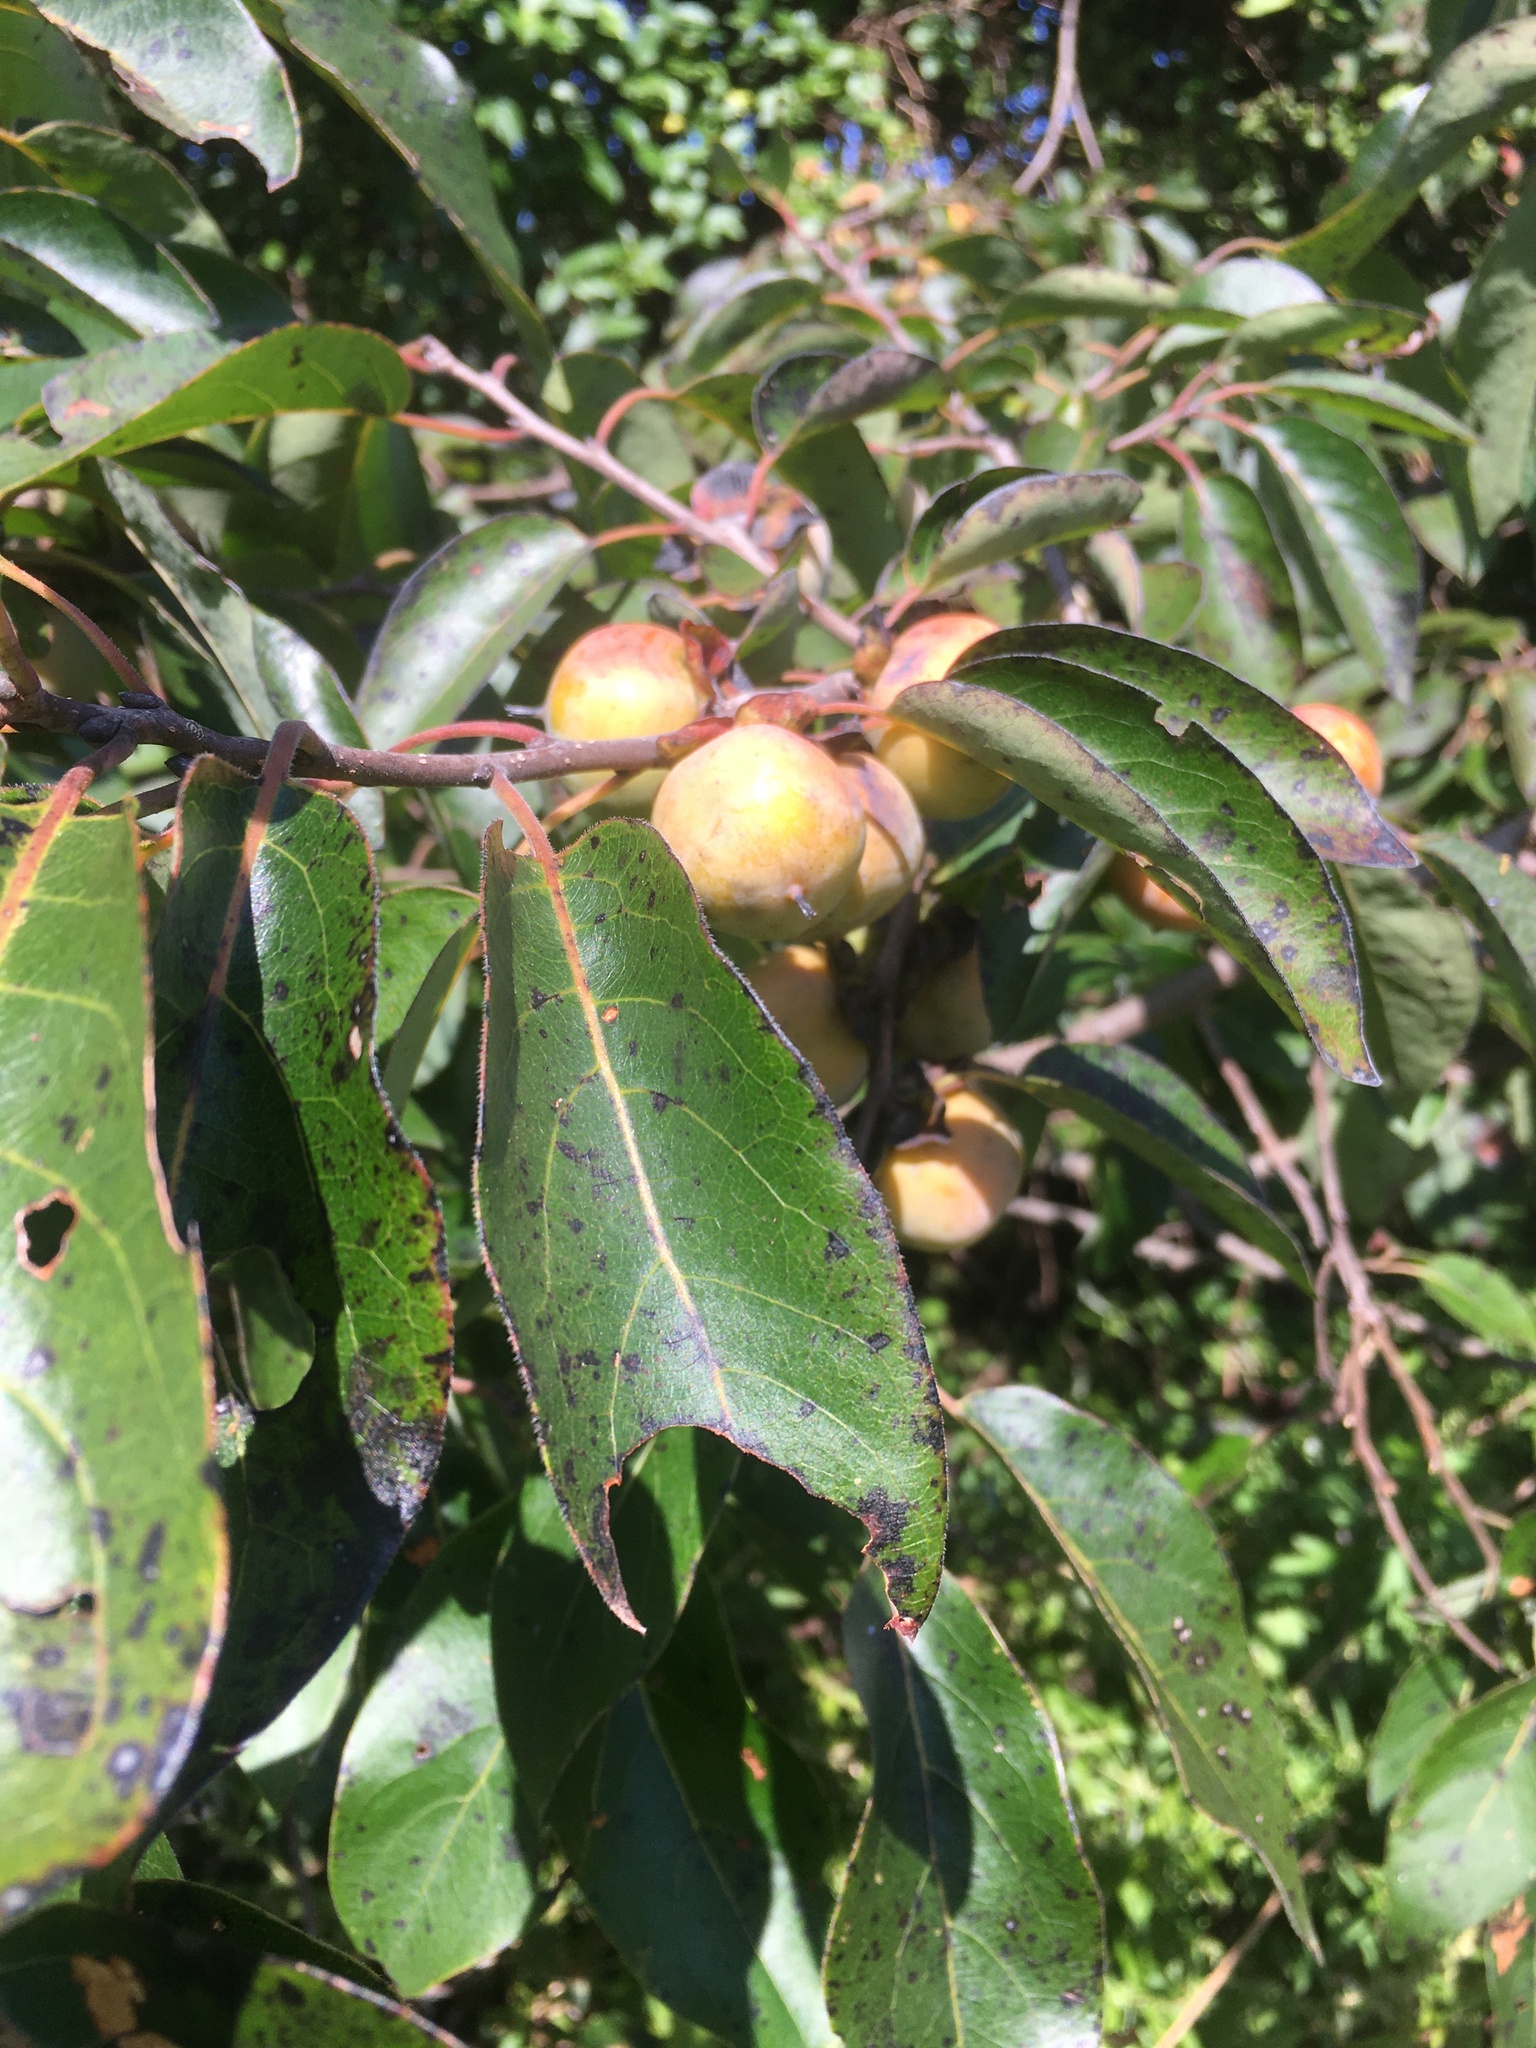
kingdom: Plantae
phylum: Tracheophyta
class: Magnoliopsida
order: Ericales
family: Ebenaceae
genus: Diospyros
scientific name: Diospyros virginiana
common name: Persimmon
